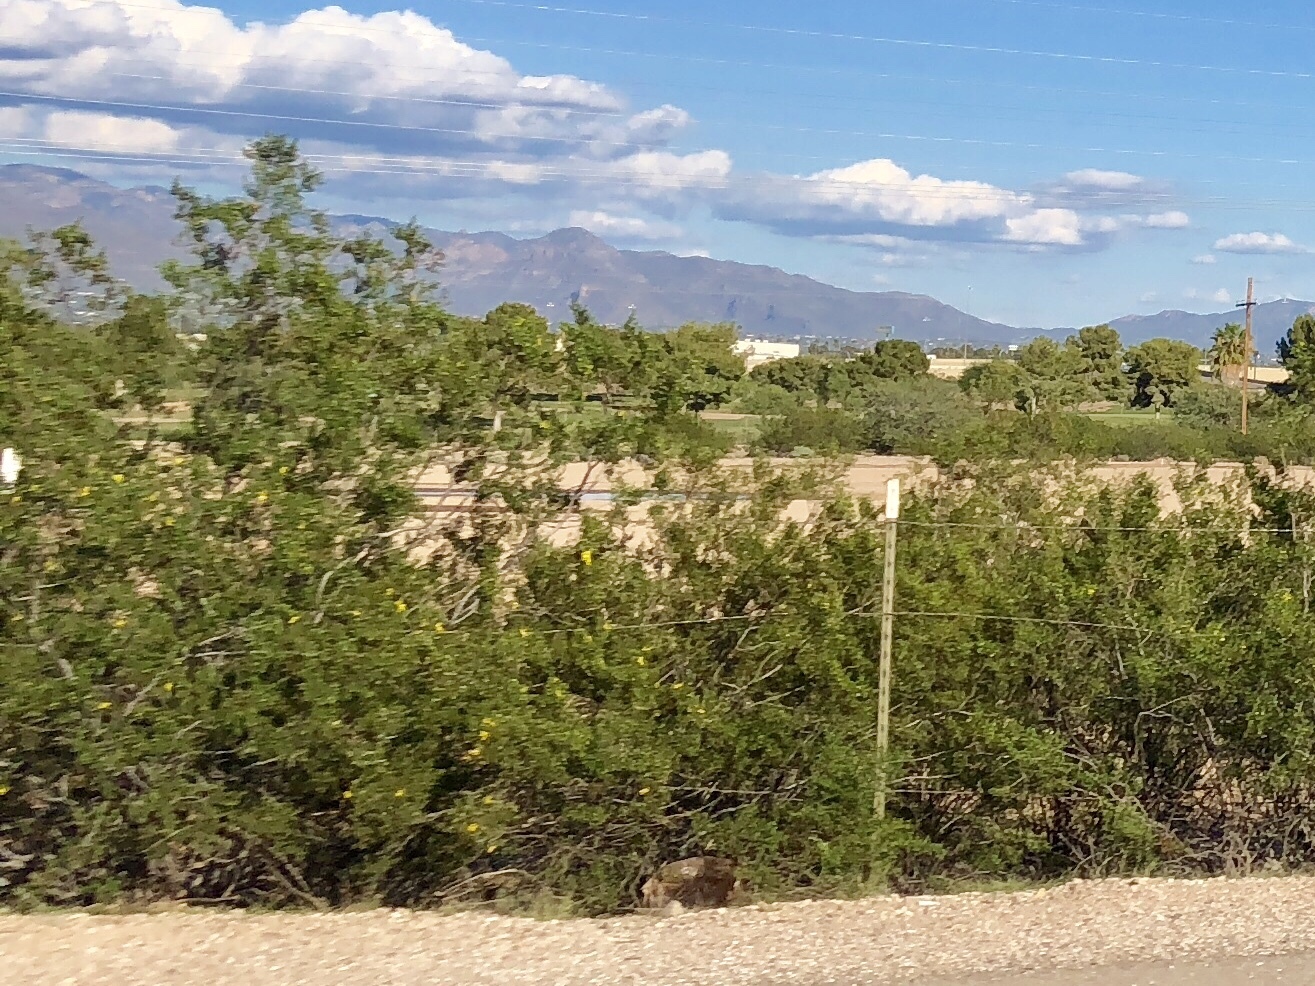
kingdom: Plantae
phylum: Tracheophyta
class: Magnoliopsida
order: Zygophyllales
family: Zygophyllaceae
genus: Larrea
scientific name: Larrea tridentata
